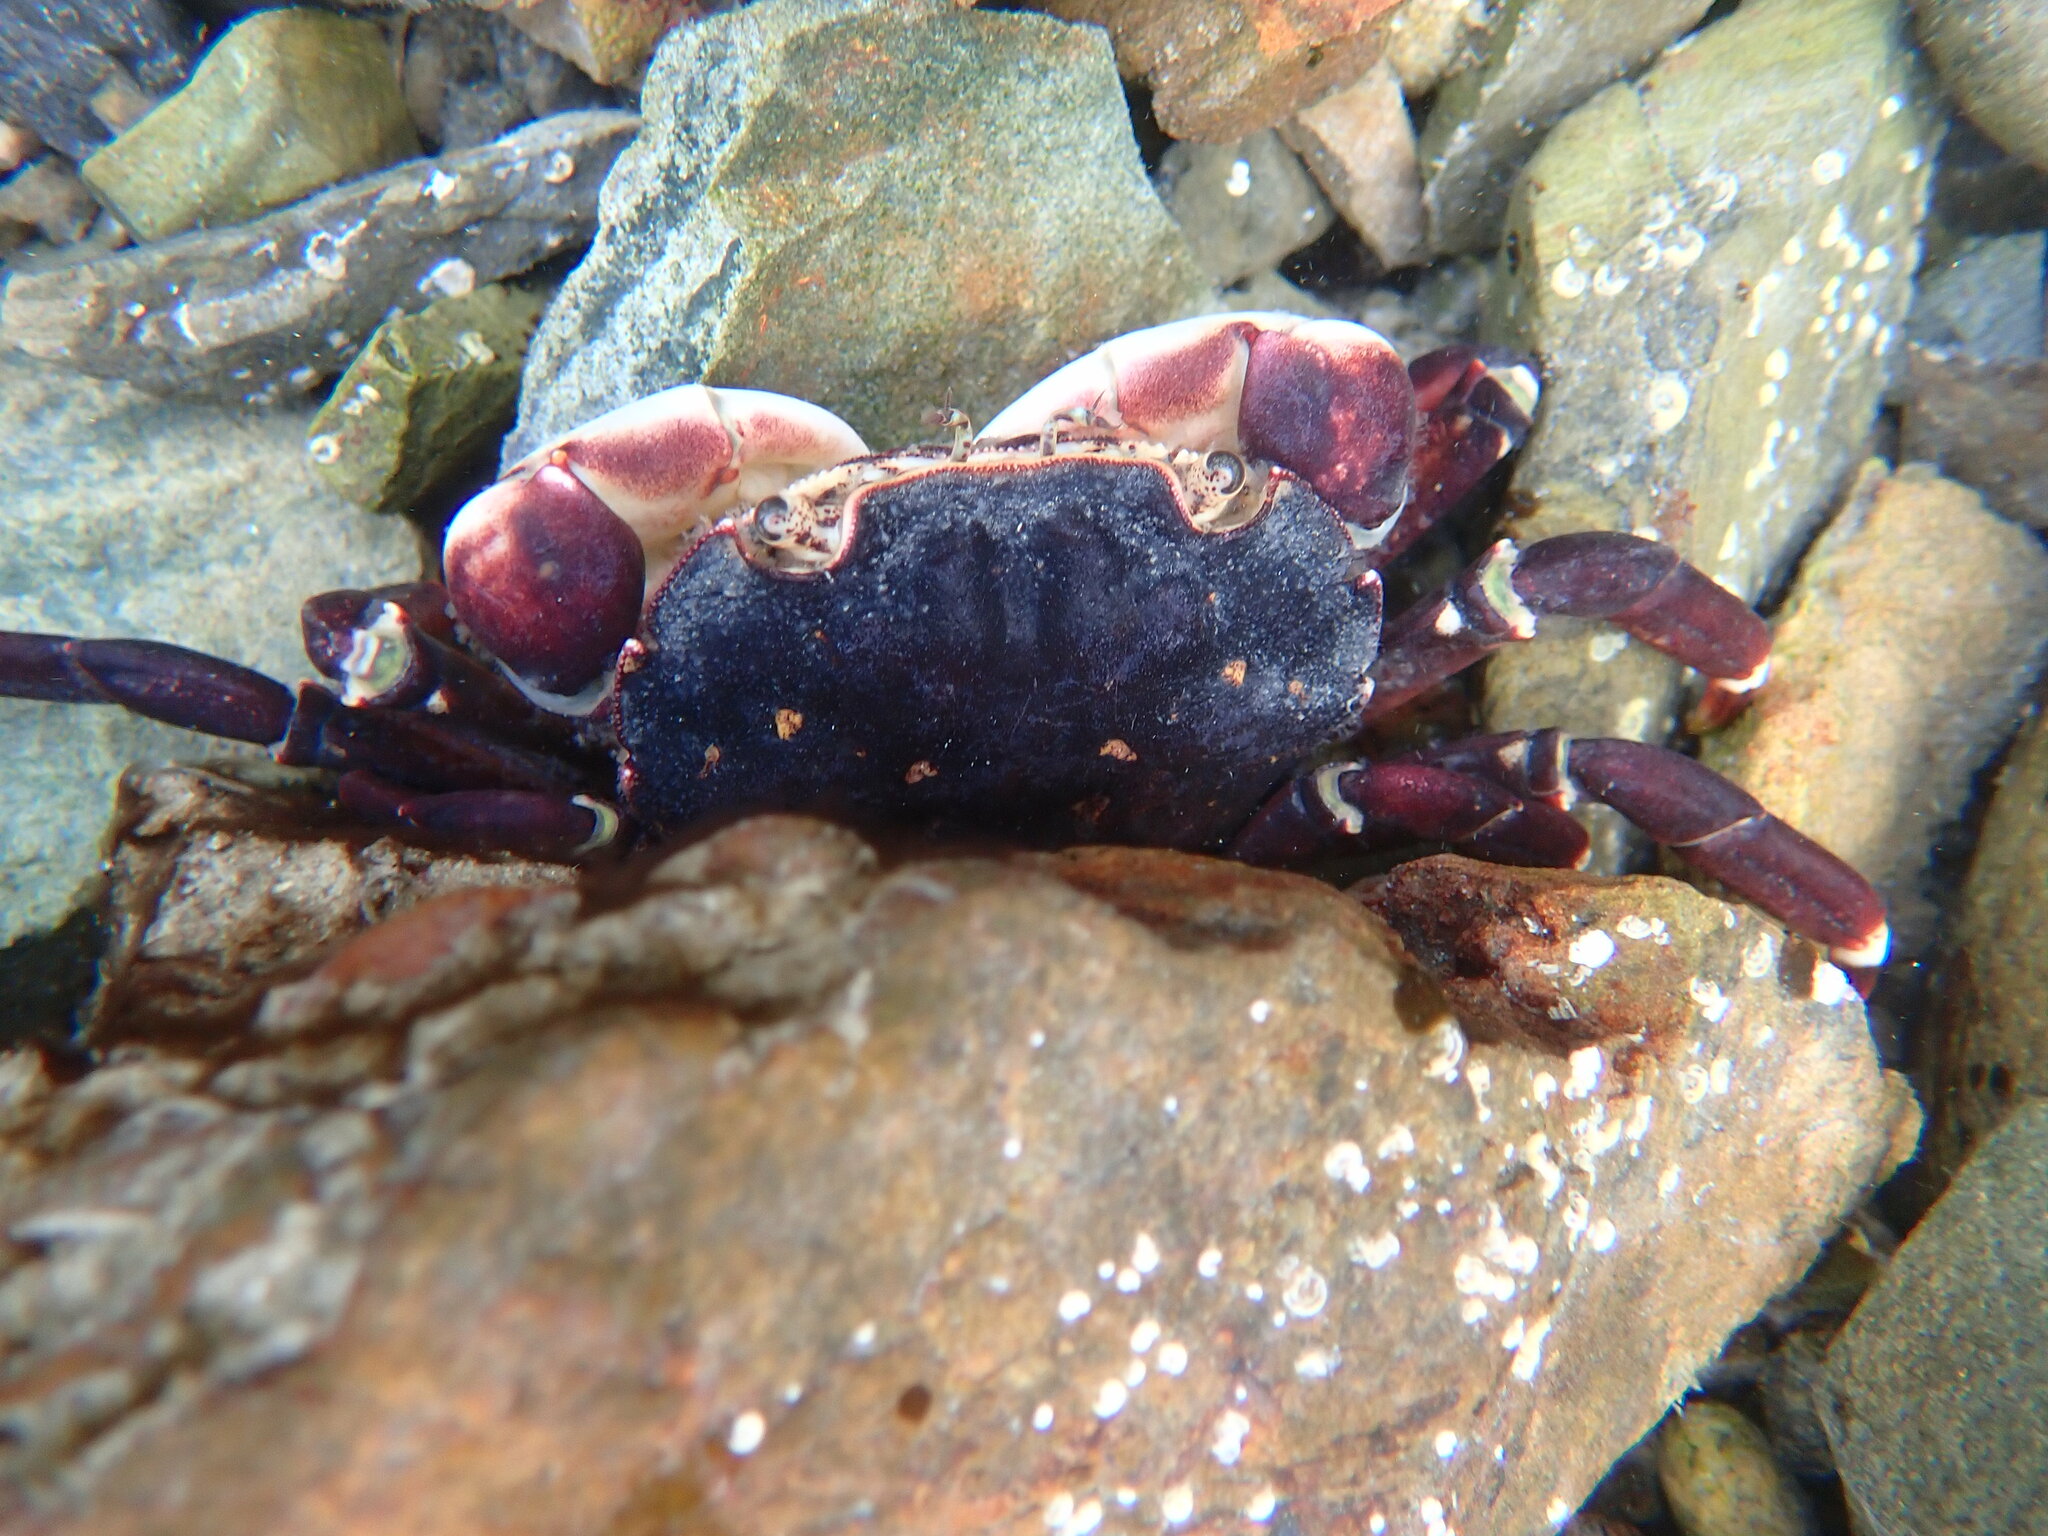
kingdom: Animalia
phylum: Arthropoda
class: Malacostraca
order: Decapoda
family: Varunidae
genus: Hemigrapsus
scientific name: Hemigrapsus sexdentatus
